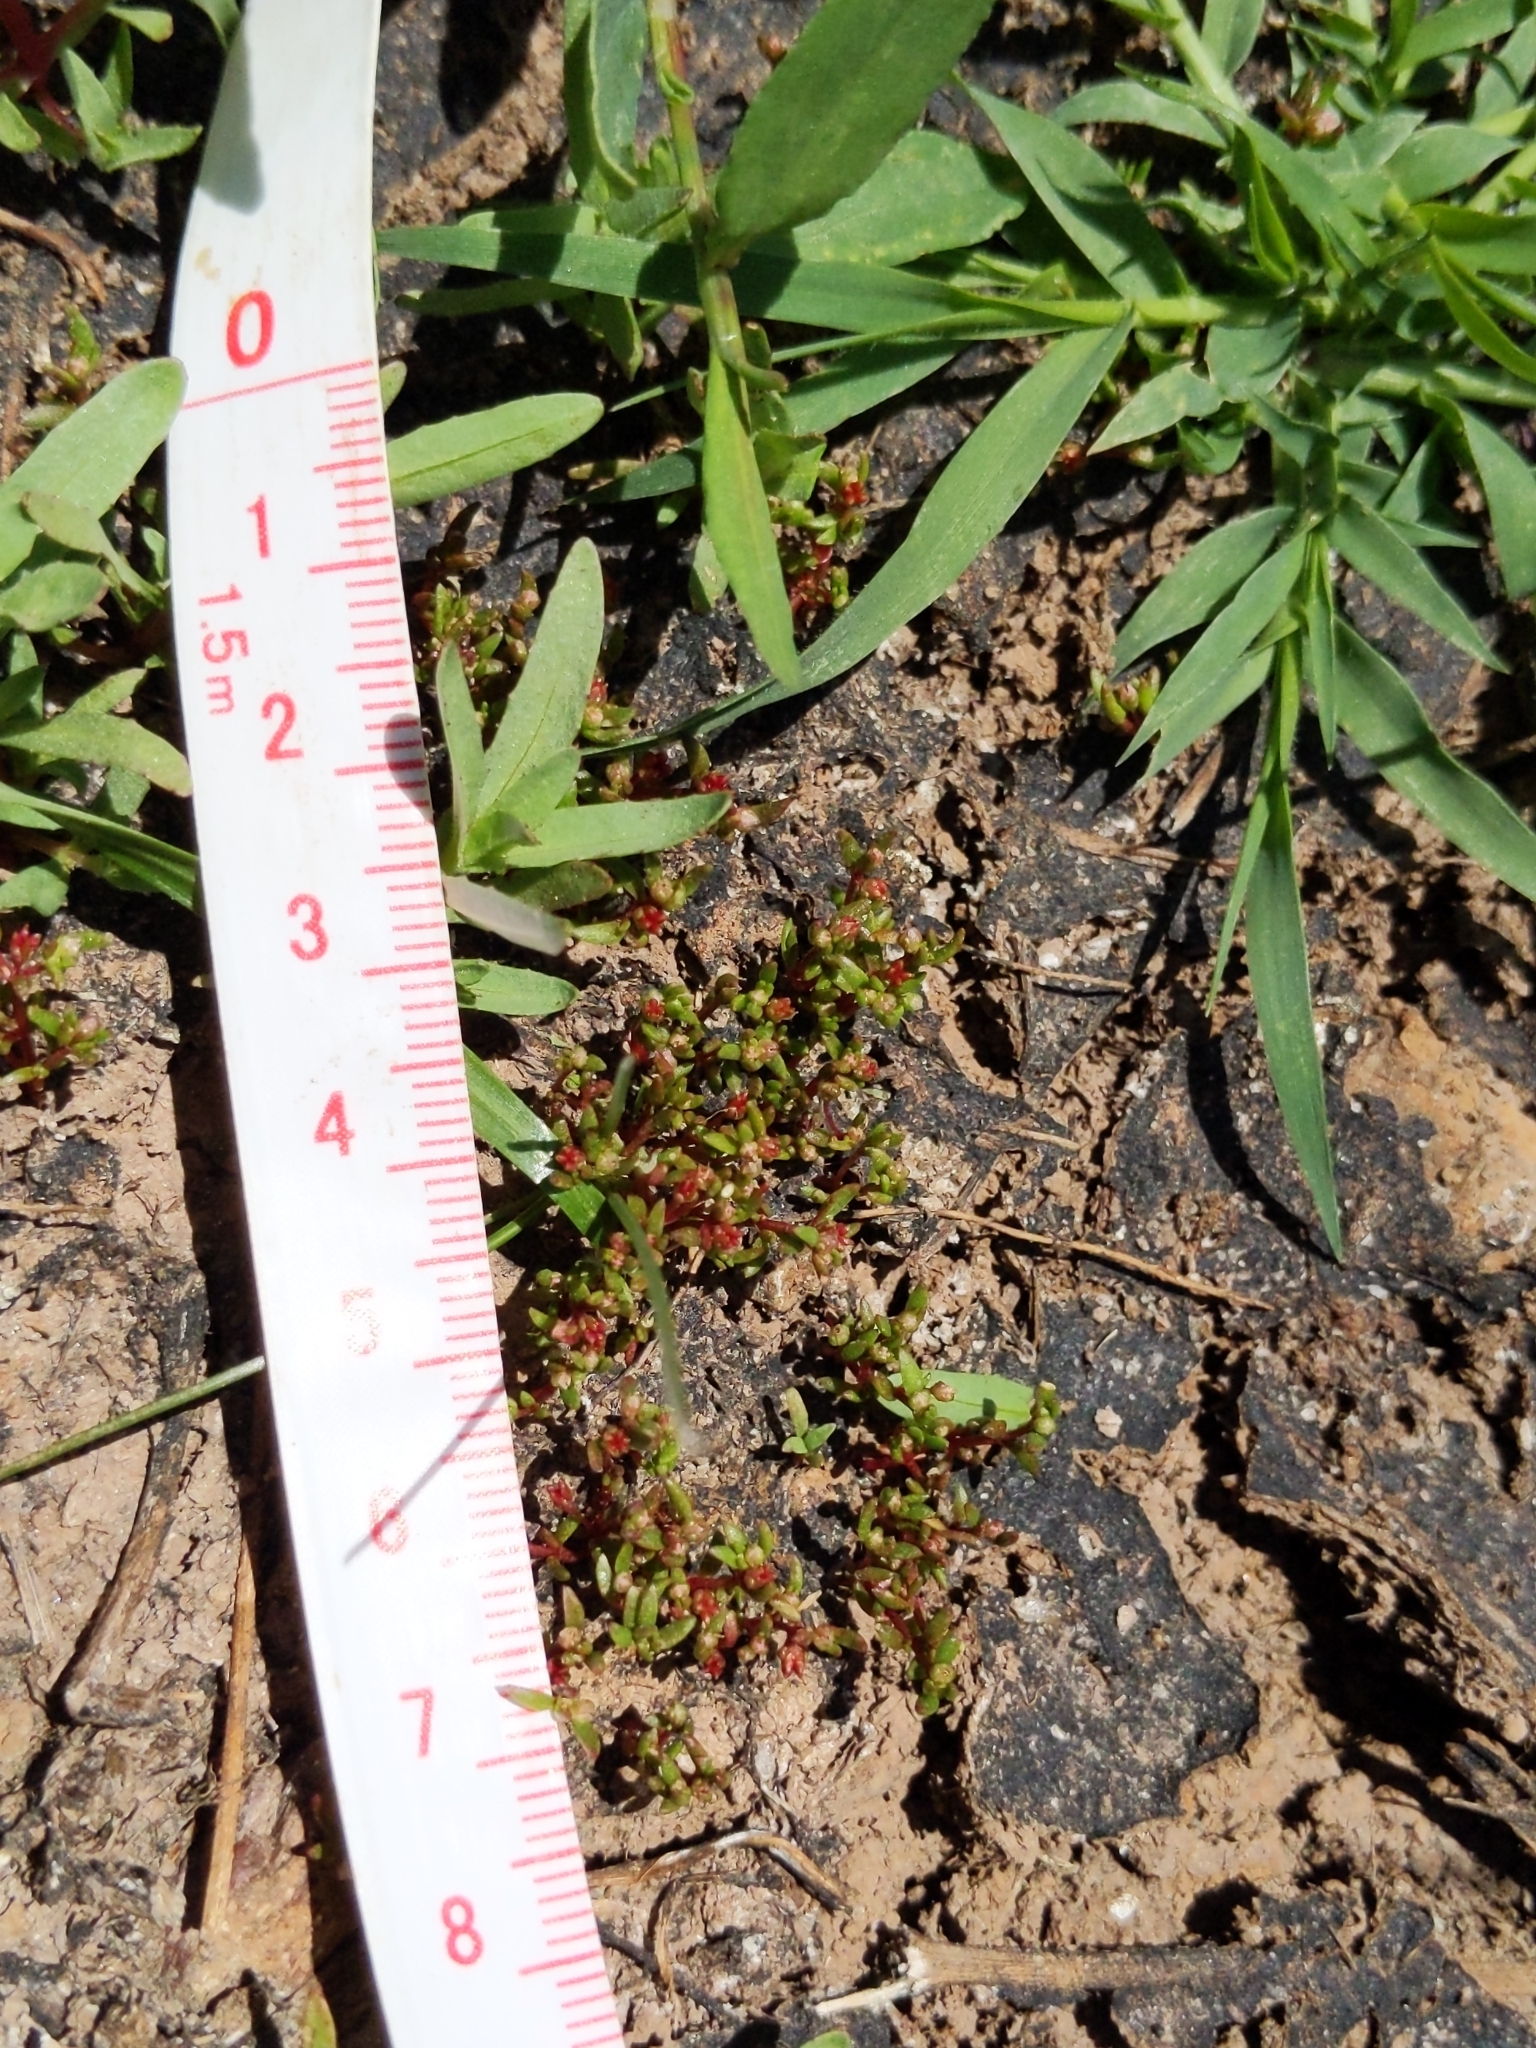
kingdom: Plantae
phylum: Tracheophyta
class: Magnoliopsida
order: Saxifragales
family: Crassulaceae
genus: Crassula
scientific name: Crassula aquatica
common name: Pigmyweed
